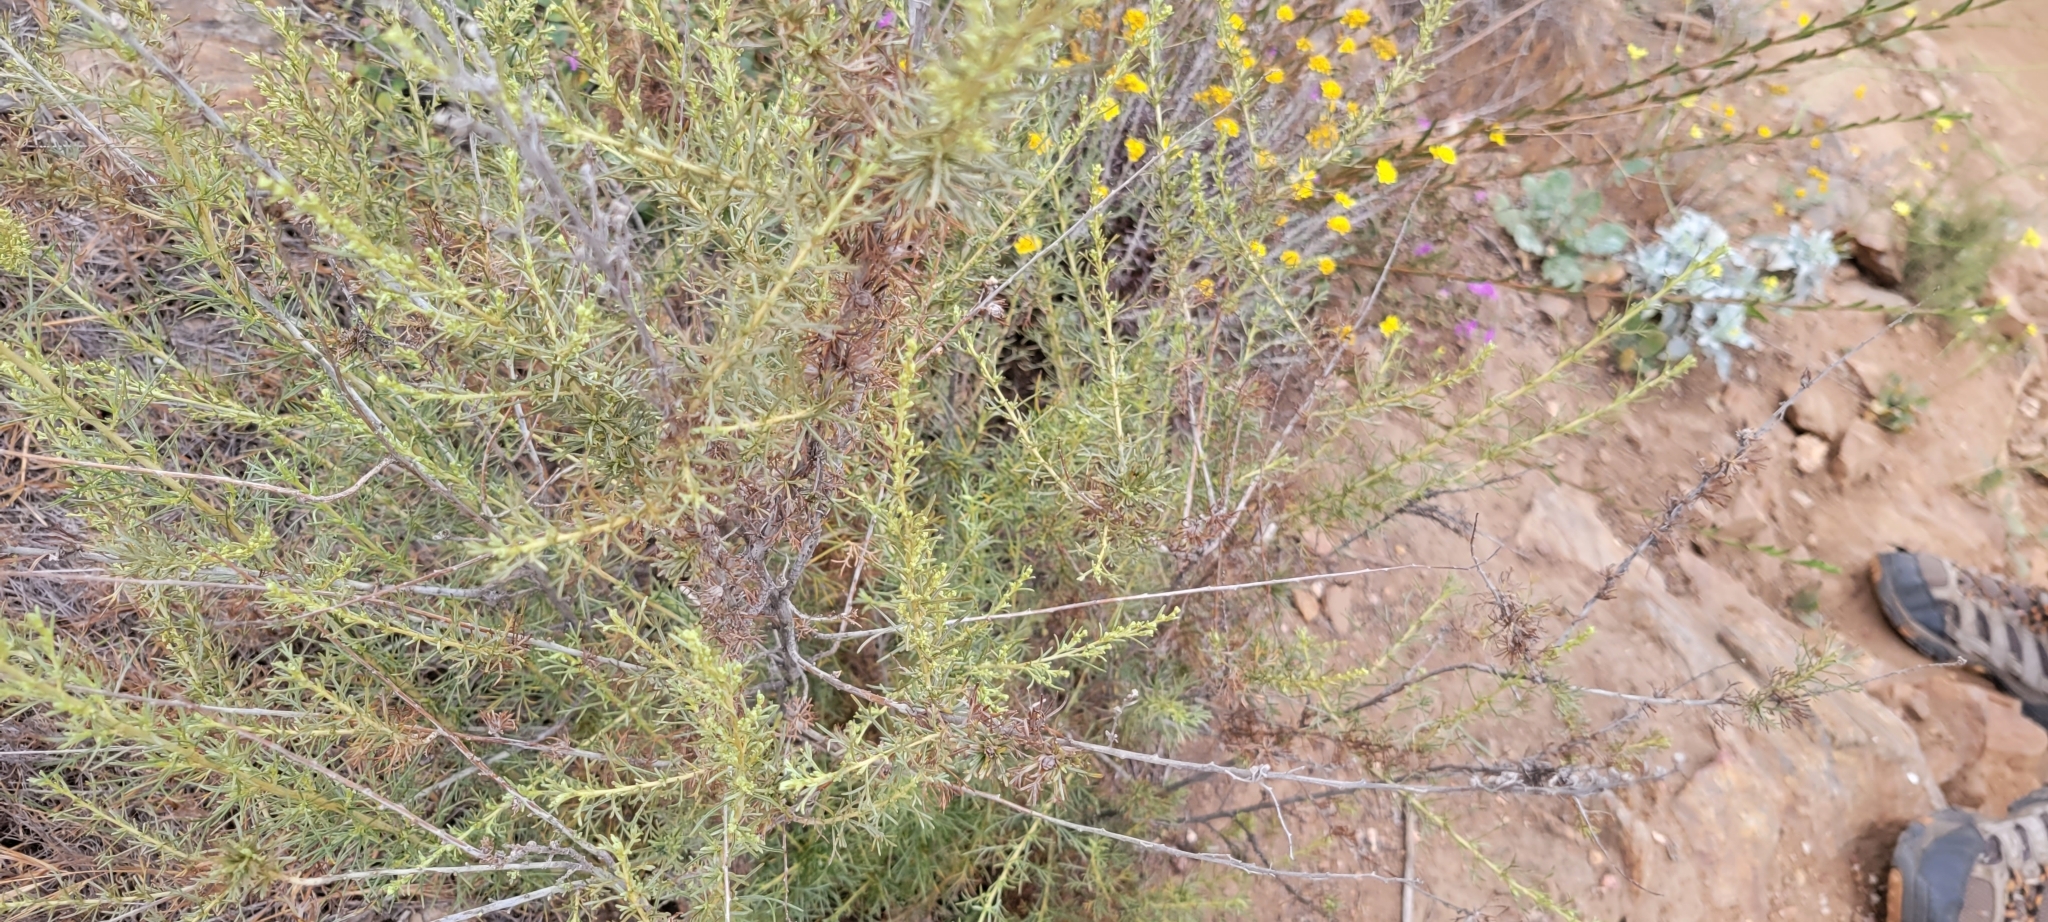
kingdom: Plantae
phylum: Tracheophyta
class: Magnoliopsida
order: Asterales
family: Asteraceae
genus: Artemisia
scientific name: Artemisia californica
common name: California sagebrush
